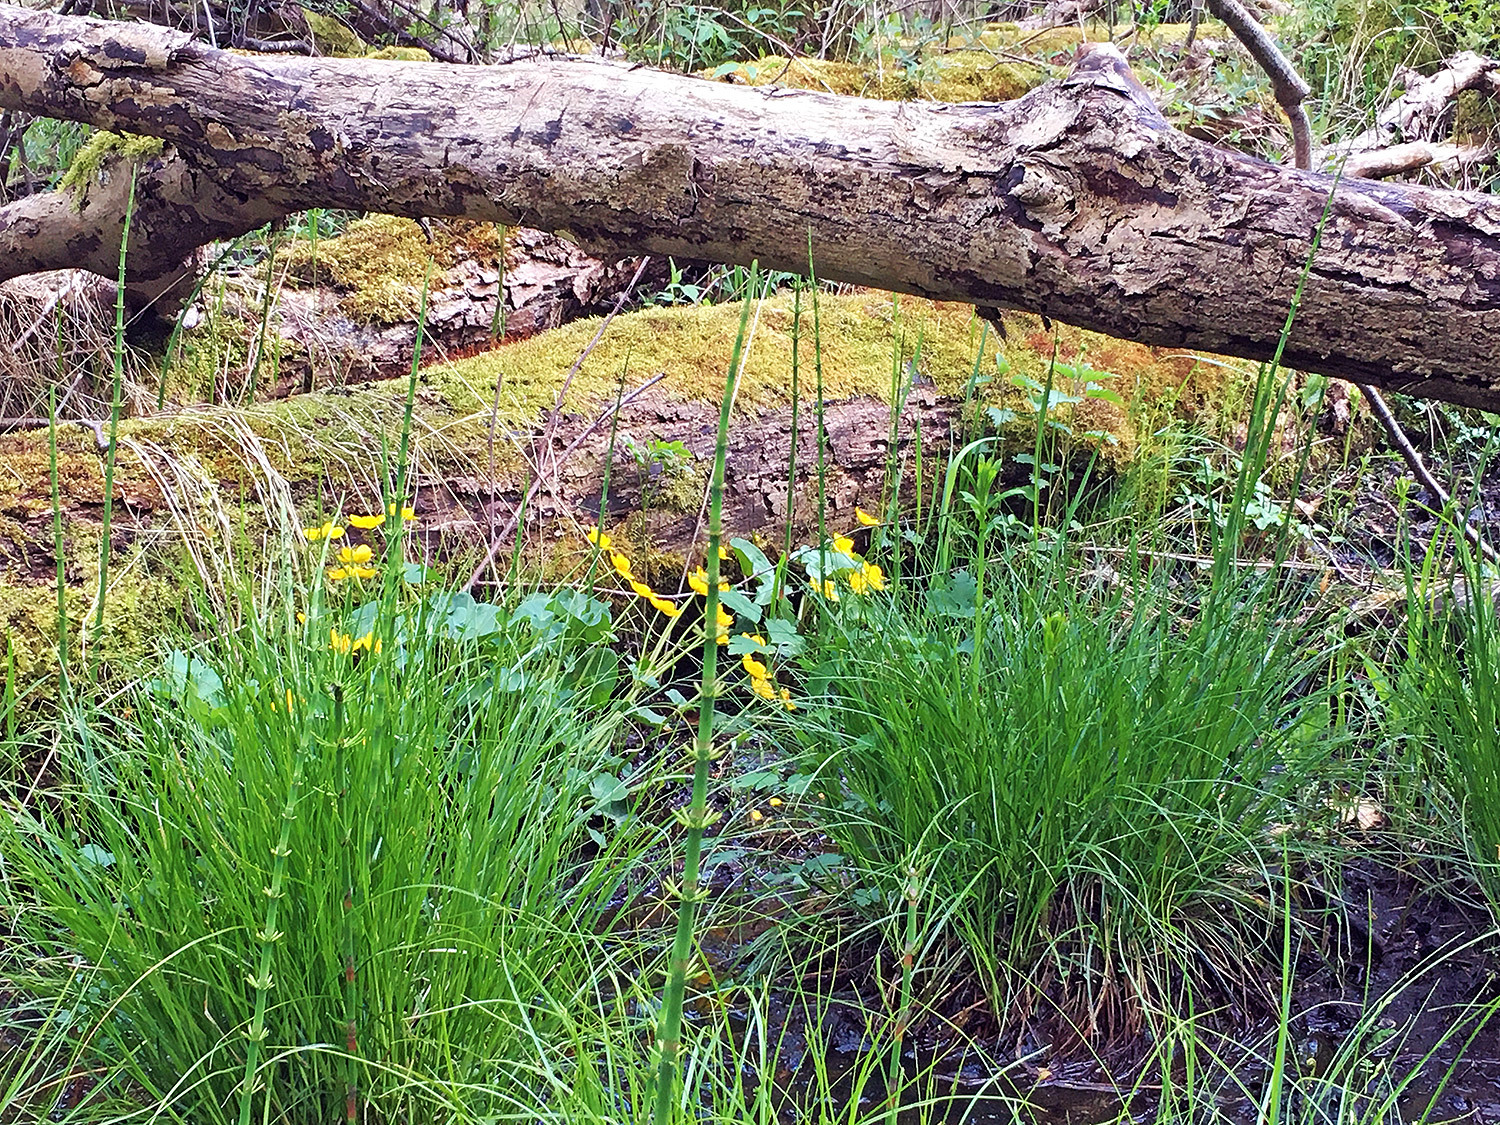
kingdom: Plantae
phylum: Tracheophyta
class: Magnoliopsida
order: Ranunculales
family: Ranunculaceae
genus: Caltha
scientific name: Caltha palustris
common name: Marsh marigold
